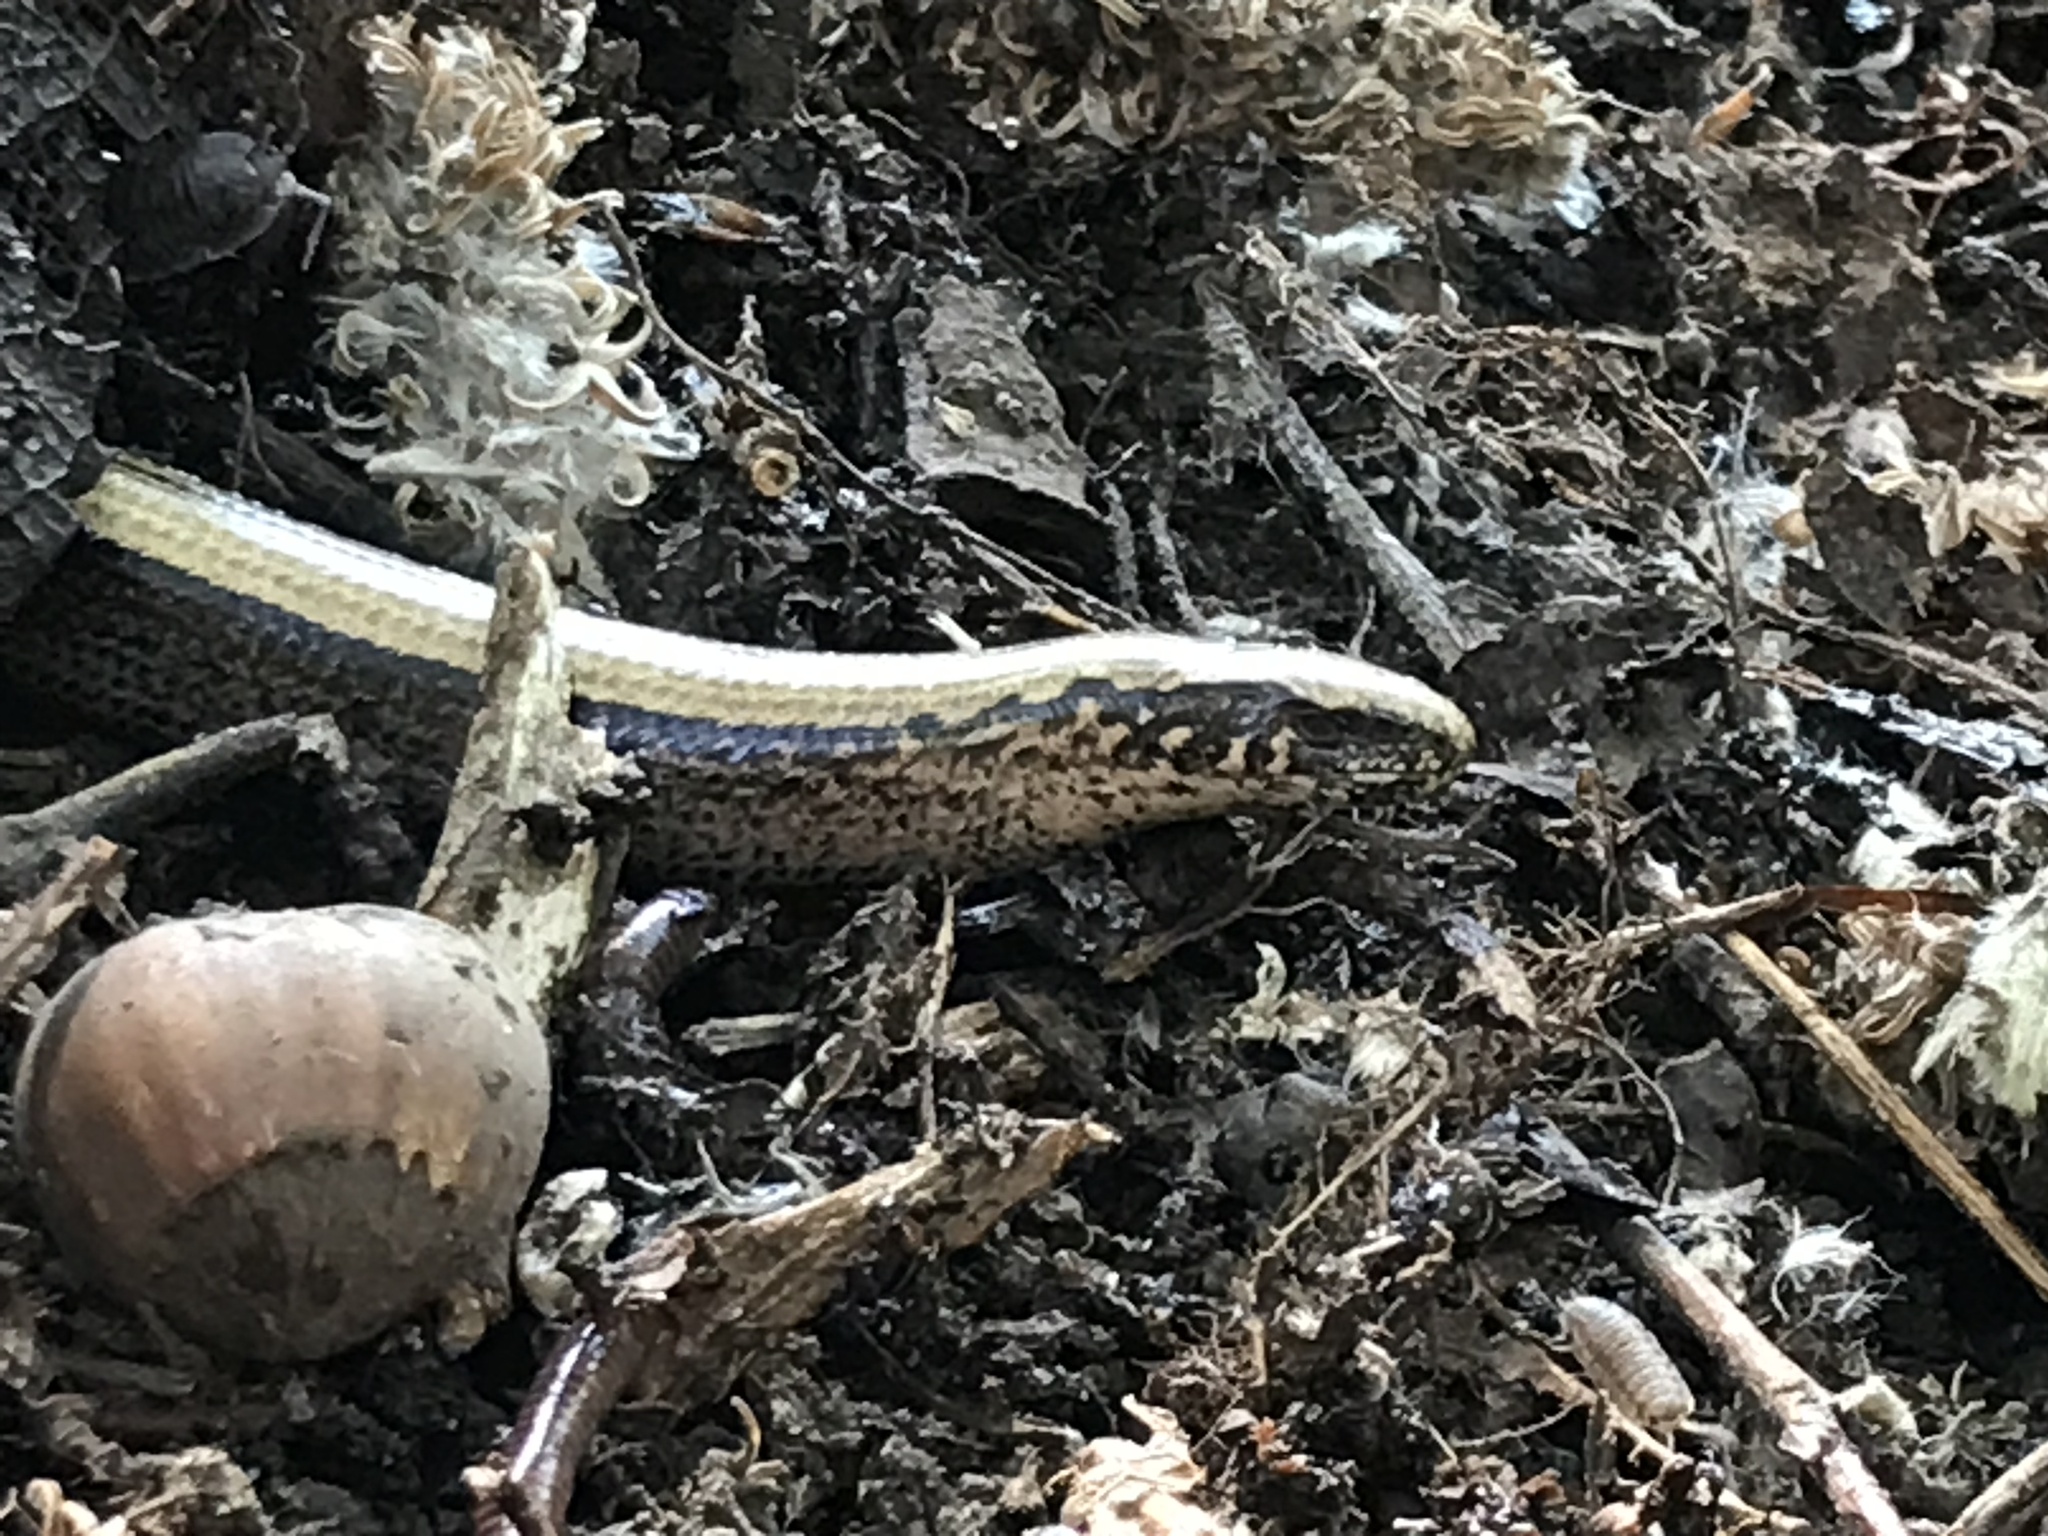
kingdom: Animalia
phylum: Chordata
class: Squamata
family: Anguidae
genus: Anguis
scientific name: Anguis fragilis
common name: Slow worm
